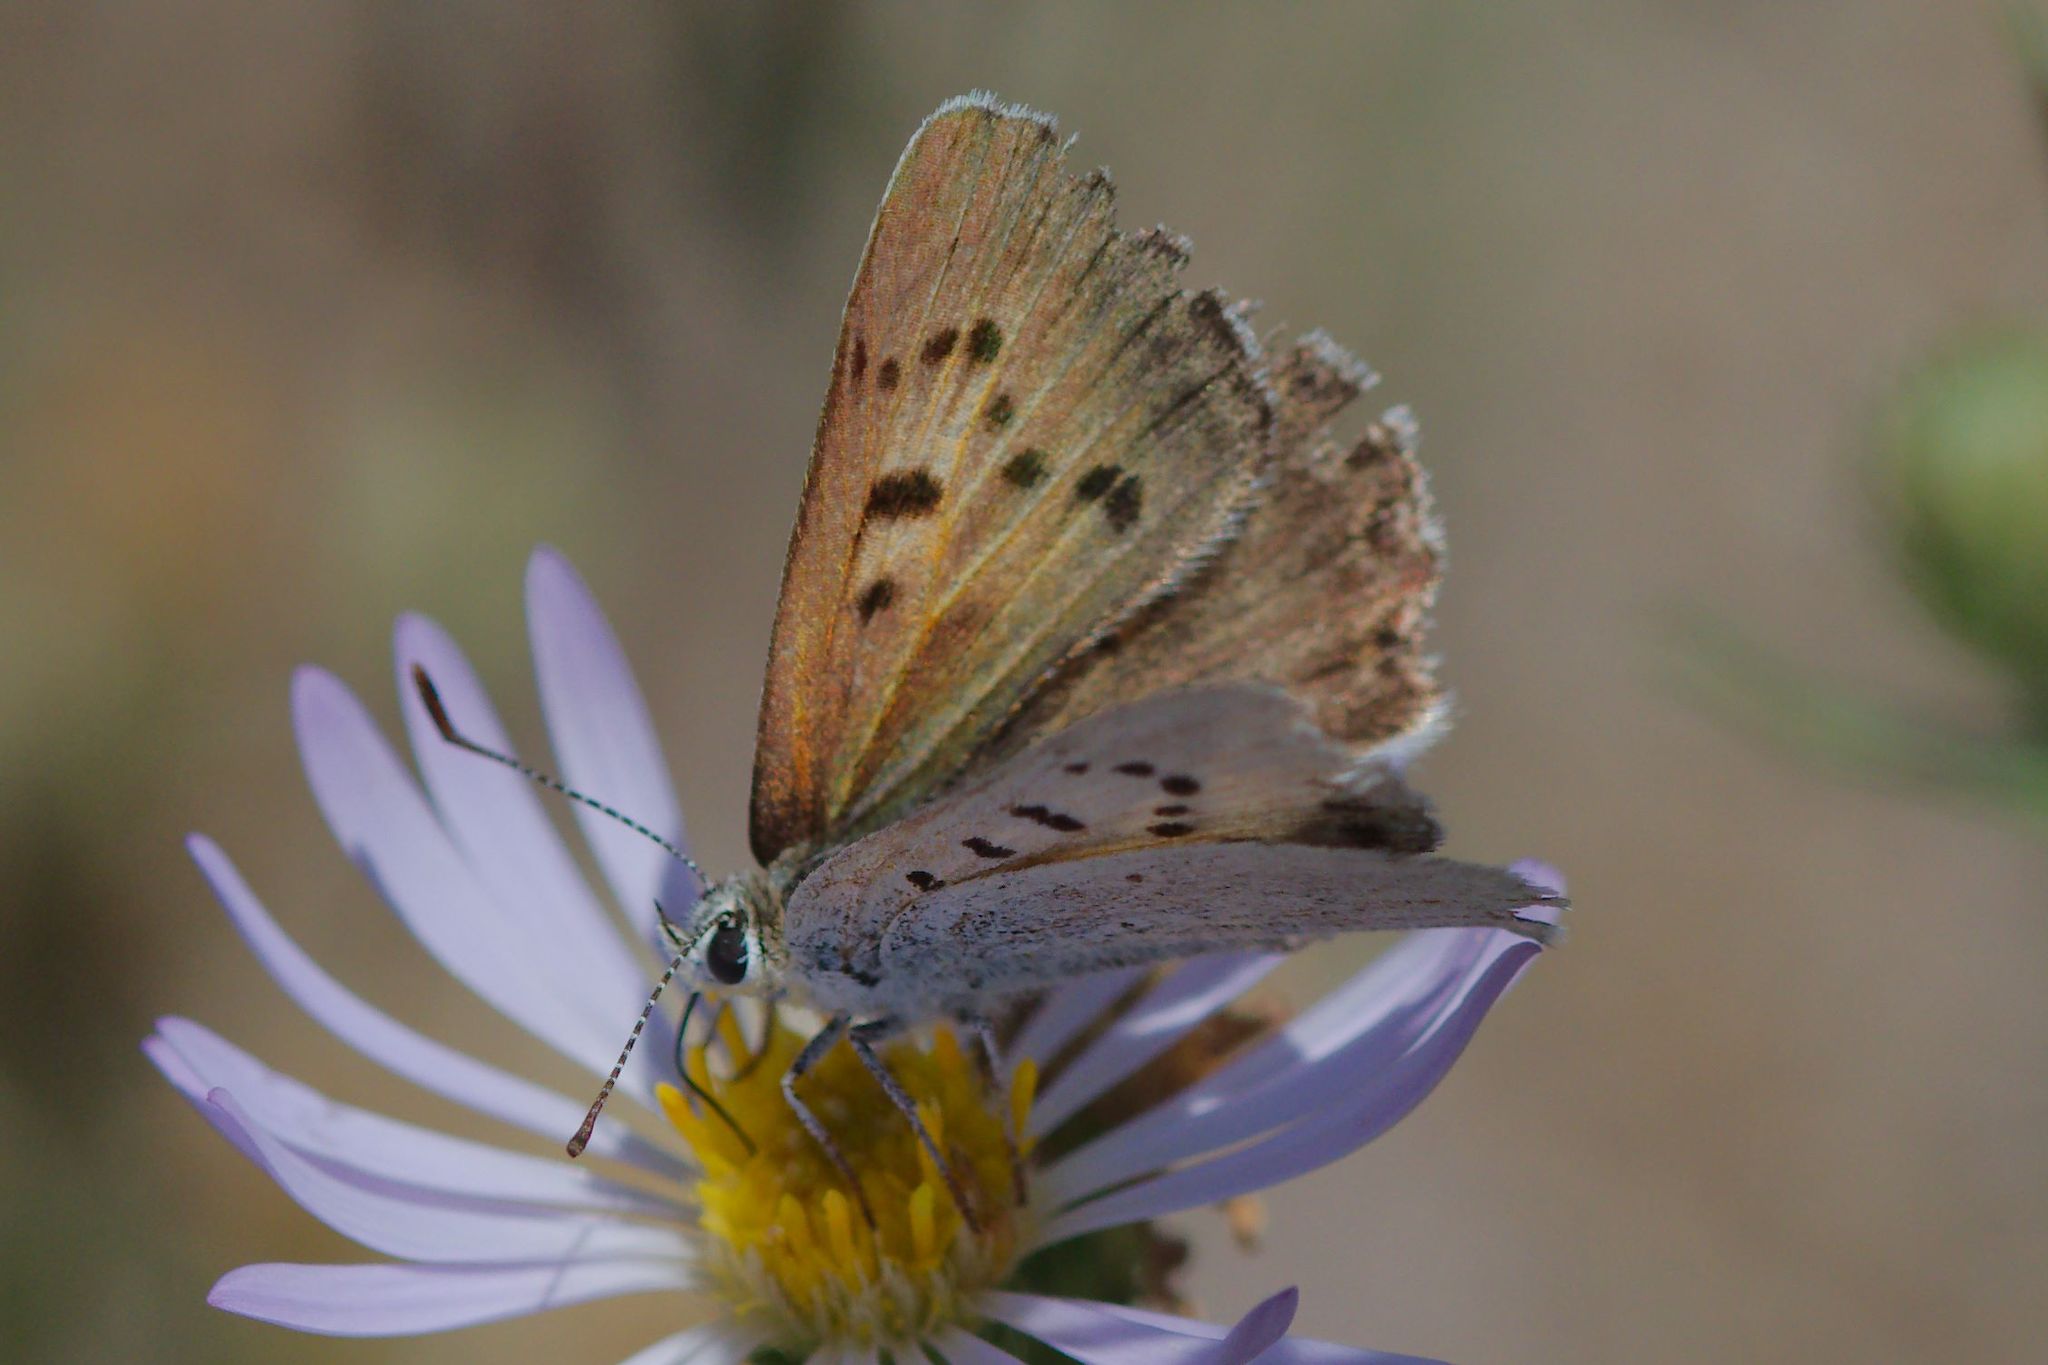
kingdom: Animalia
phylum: Arthropoda
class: Insecta
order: Lepidoptera
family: Lycaenidae
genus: Tharsalea
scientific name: Tharsalea rubidus
